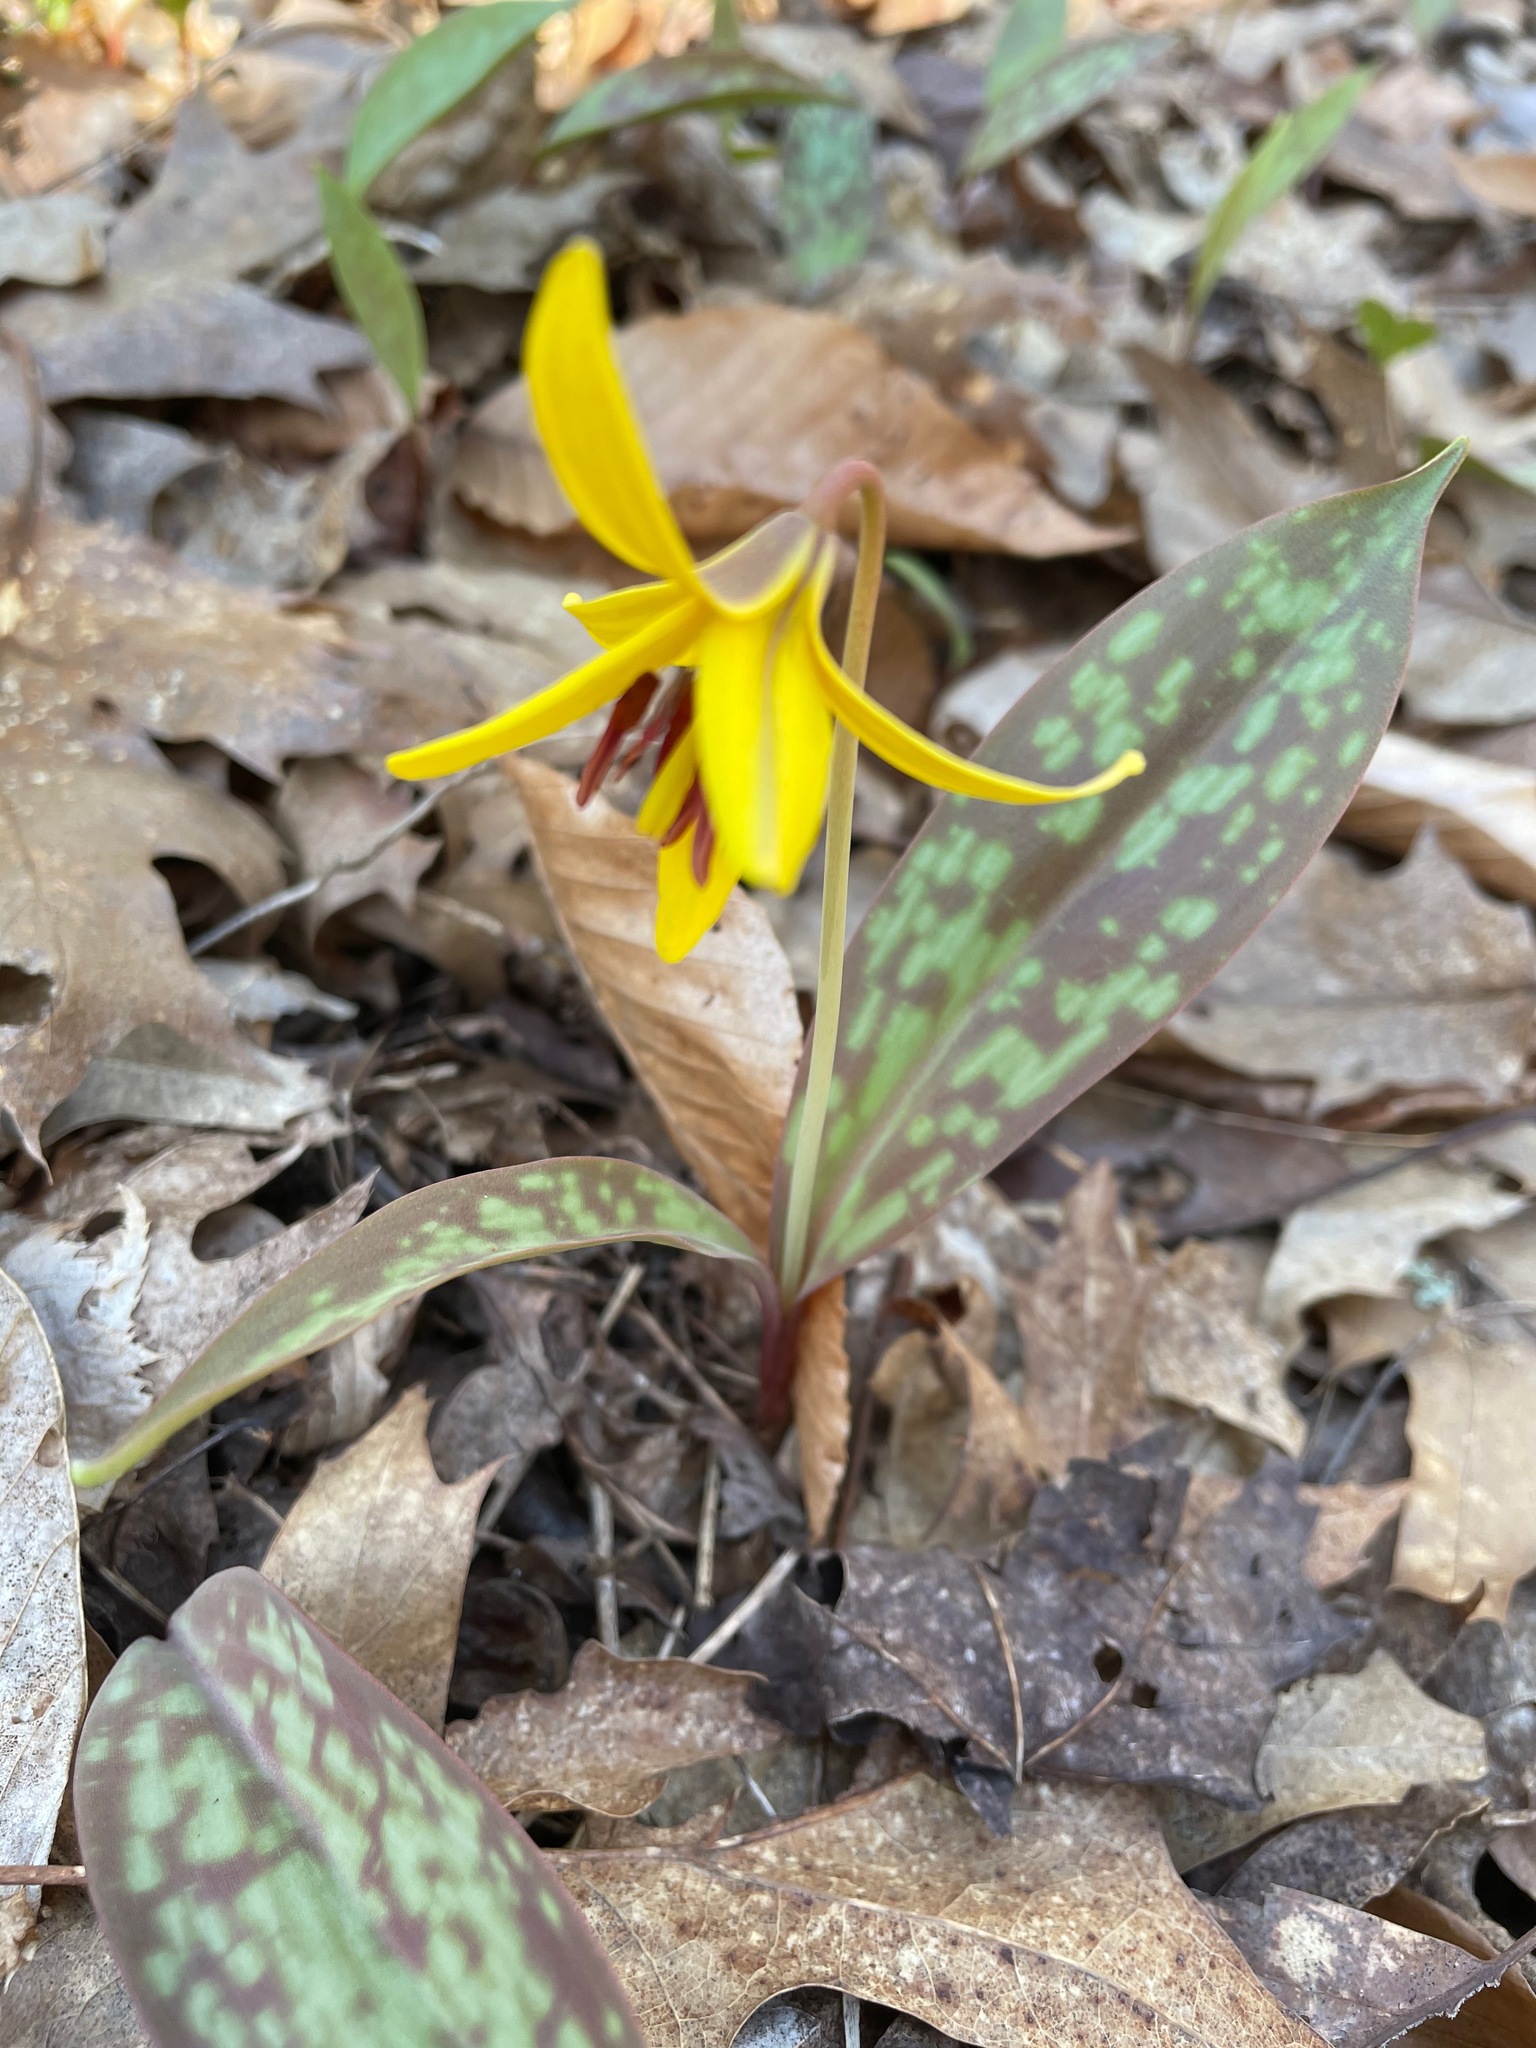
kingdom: Plantae
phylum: Tracheophyta
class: Liliopsida
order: Liliales
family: Liliaceae
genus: Erythronium
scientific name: Erythronium americanum
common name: Yellow adder's-tongue
